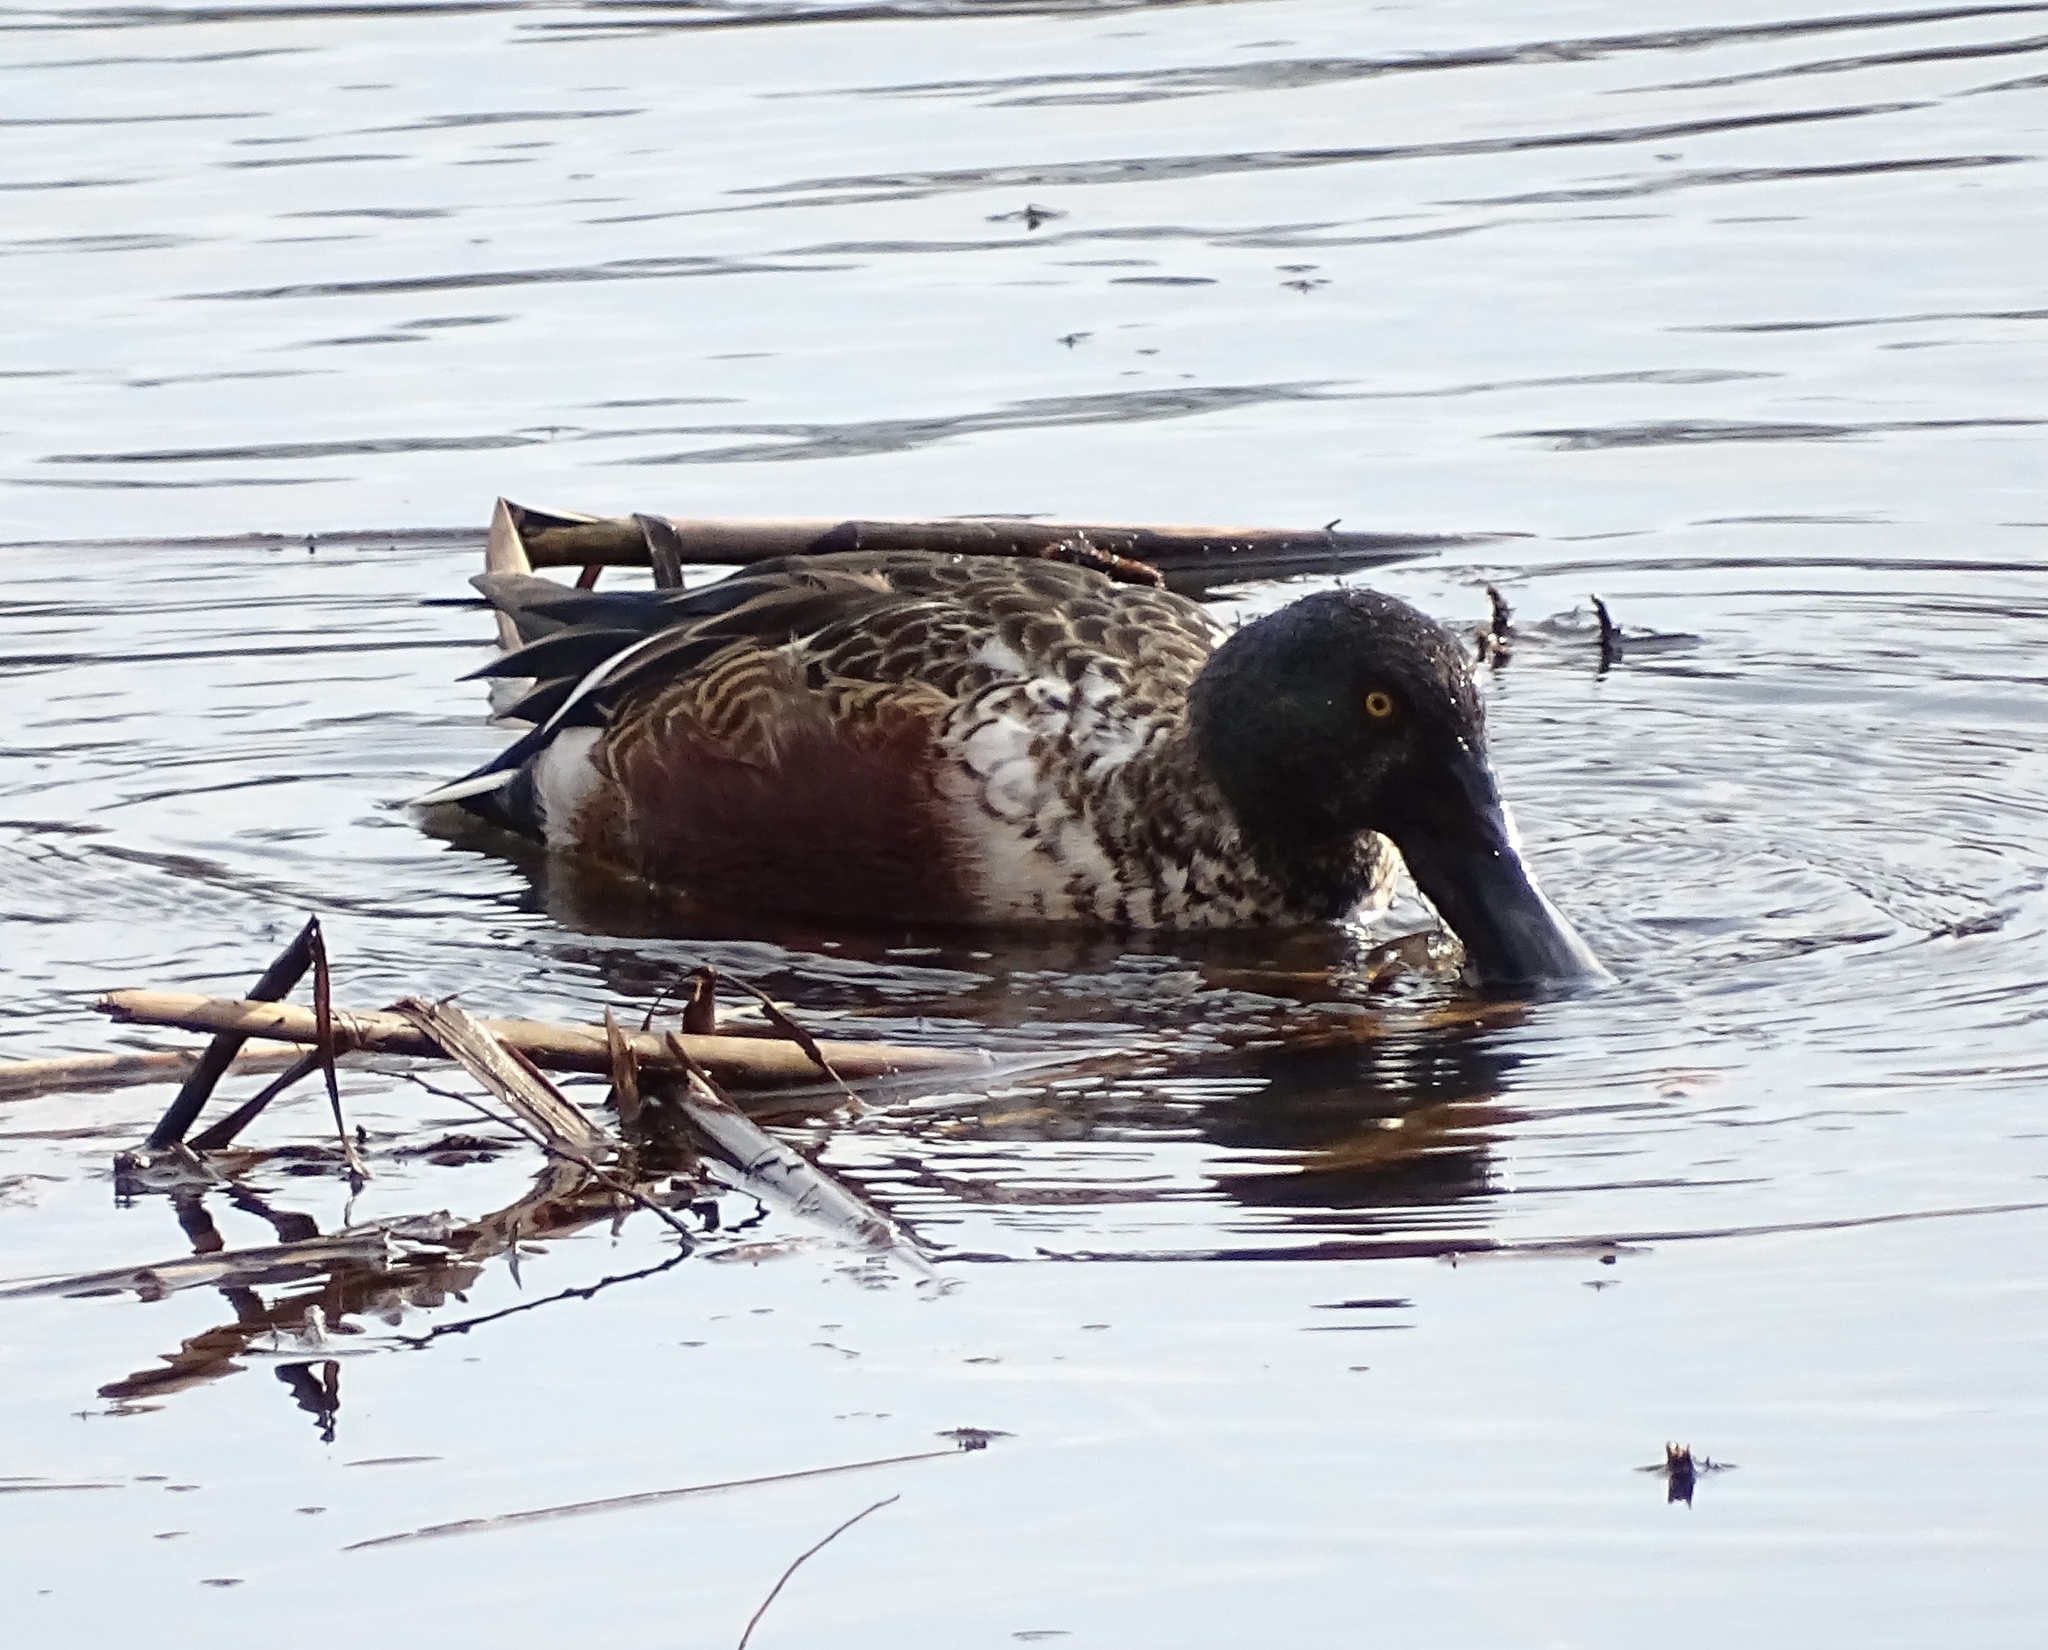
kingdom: Animalia
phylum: Chordata
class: Aves
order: Anseriformes
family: Anatidae
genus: Spatula
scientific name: Spatula clypeata
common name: Northern shoveler
